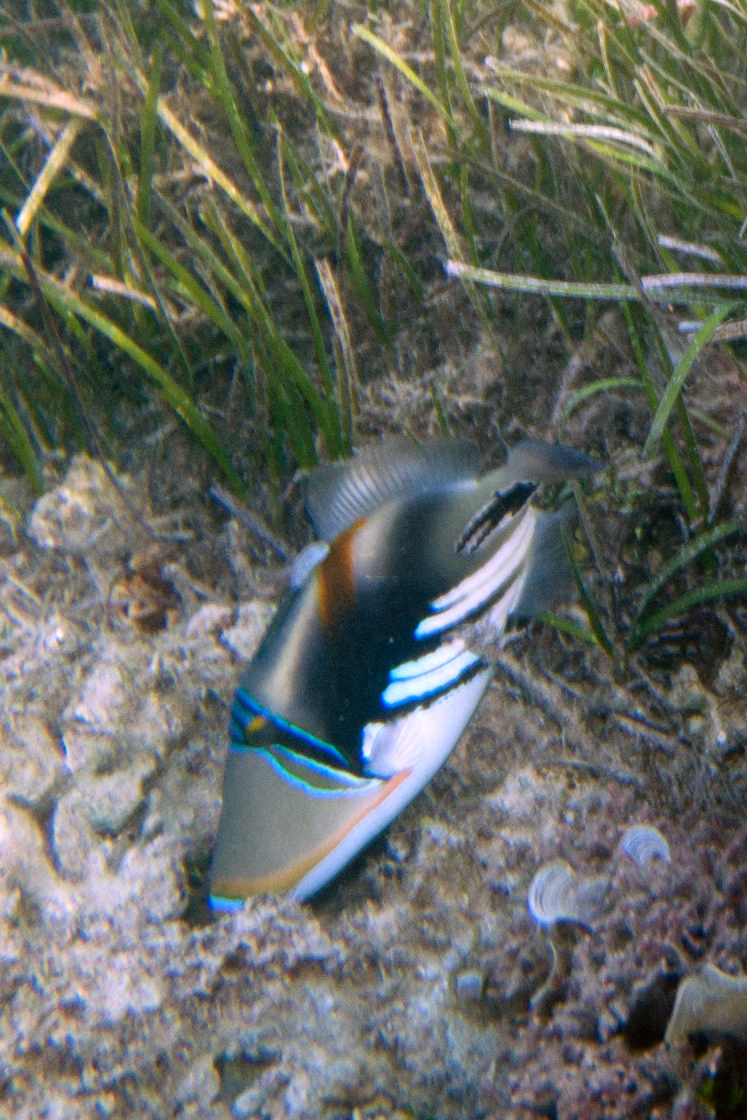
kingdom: Animalia
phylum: Chordata
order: Tetraodontiformes
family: Balistidae
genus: Rhinecanthus
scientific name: Rhinecanthus aculeatus
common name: White-banded triggerfish
